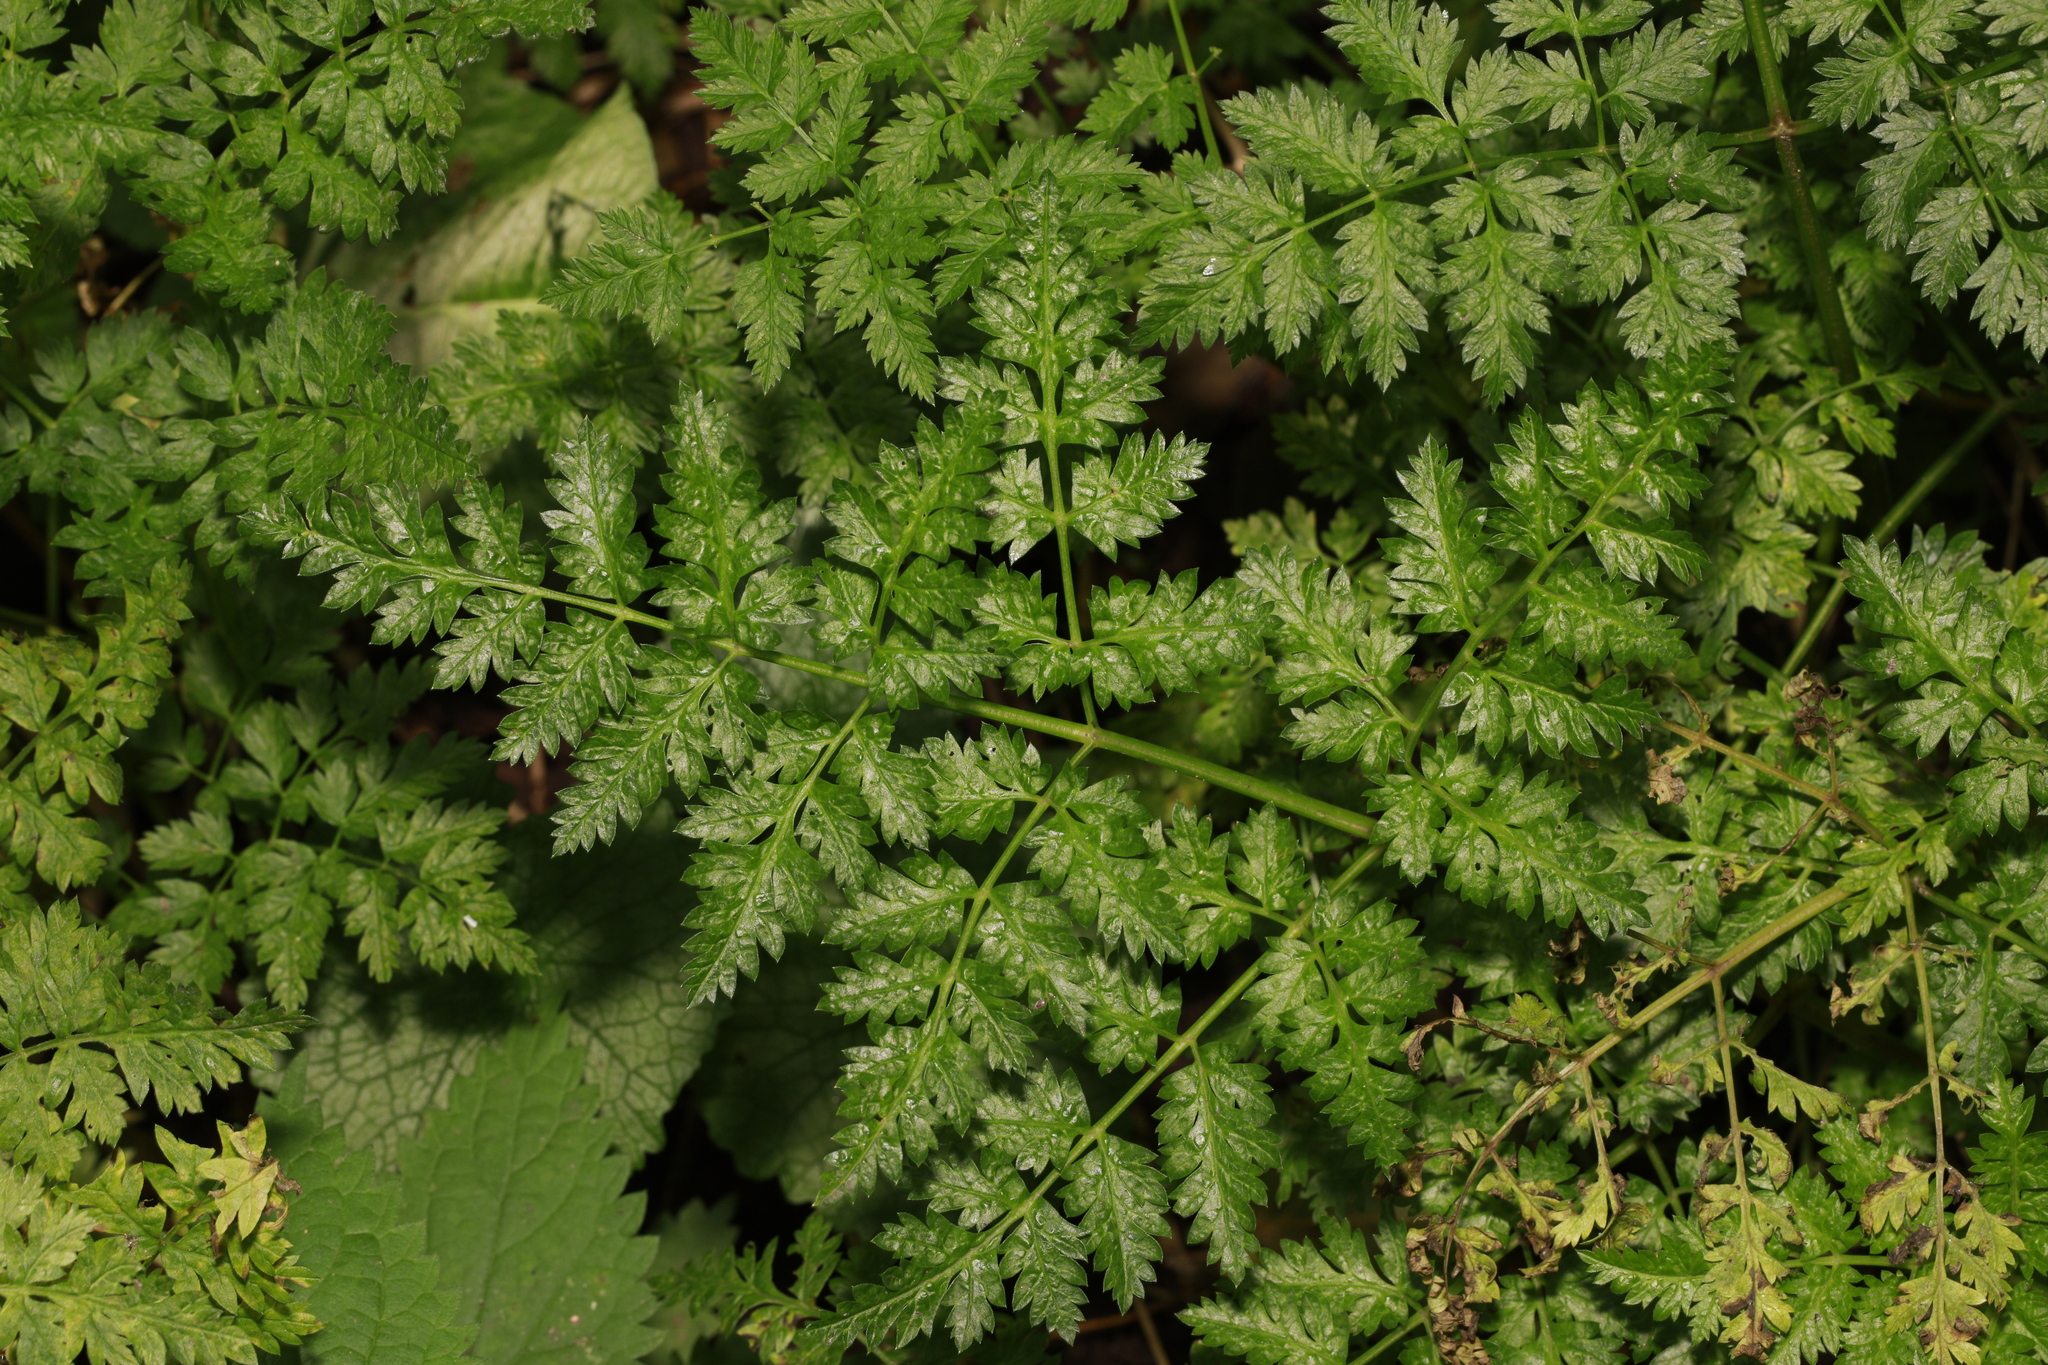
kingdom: Plantae
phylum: Tracheophyta
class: Magnoliopsida
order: Apiales
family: Apiaceae
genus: Anthriscus
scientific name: Anthriscus sylvestris
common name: Cow parsley
